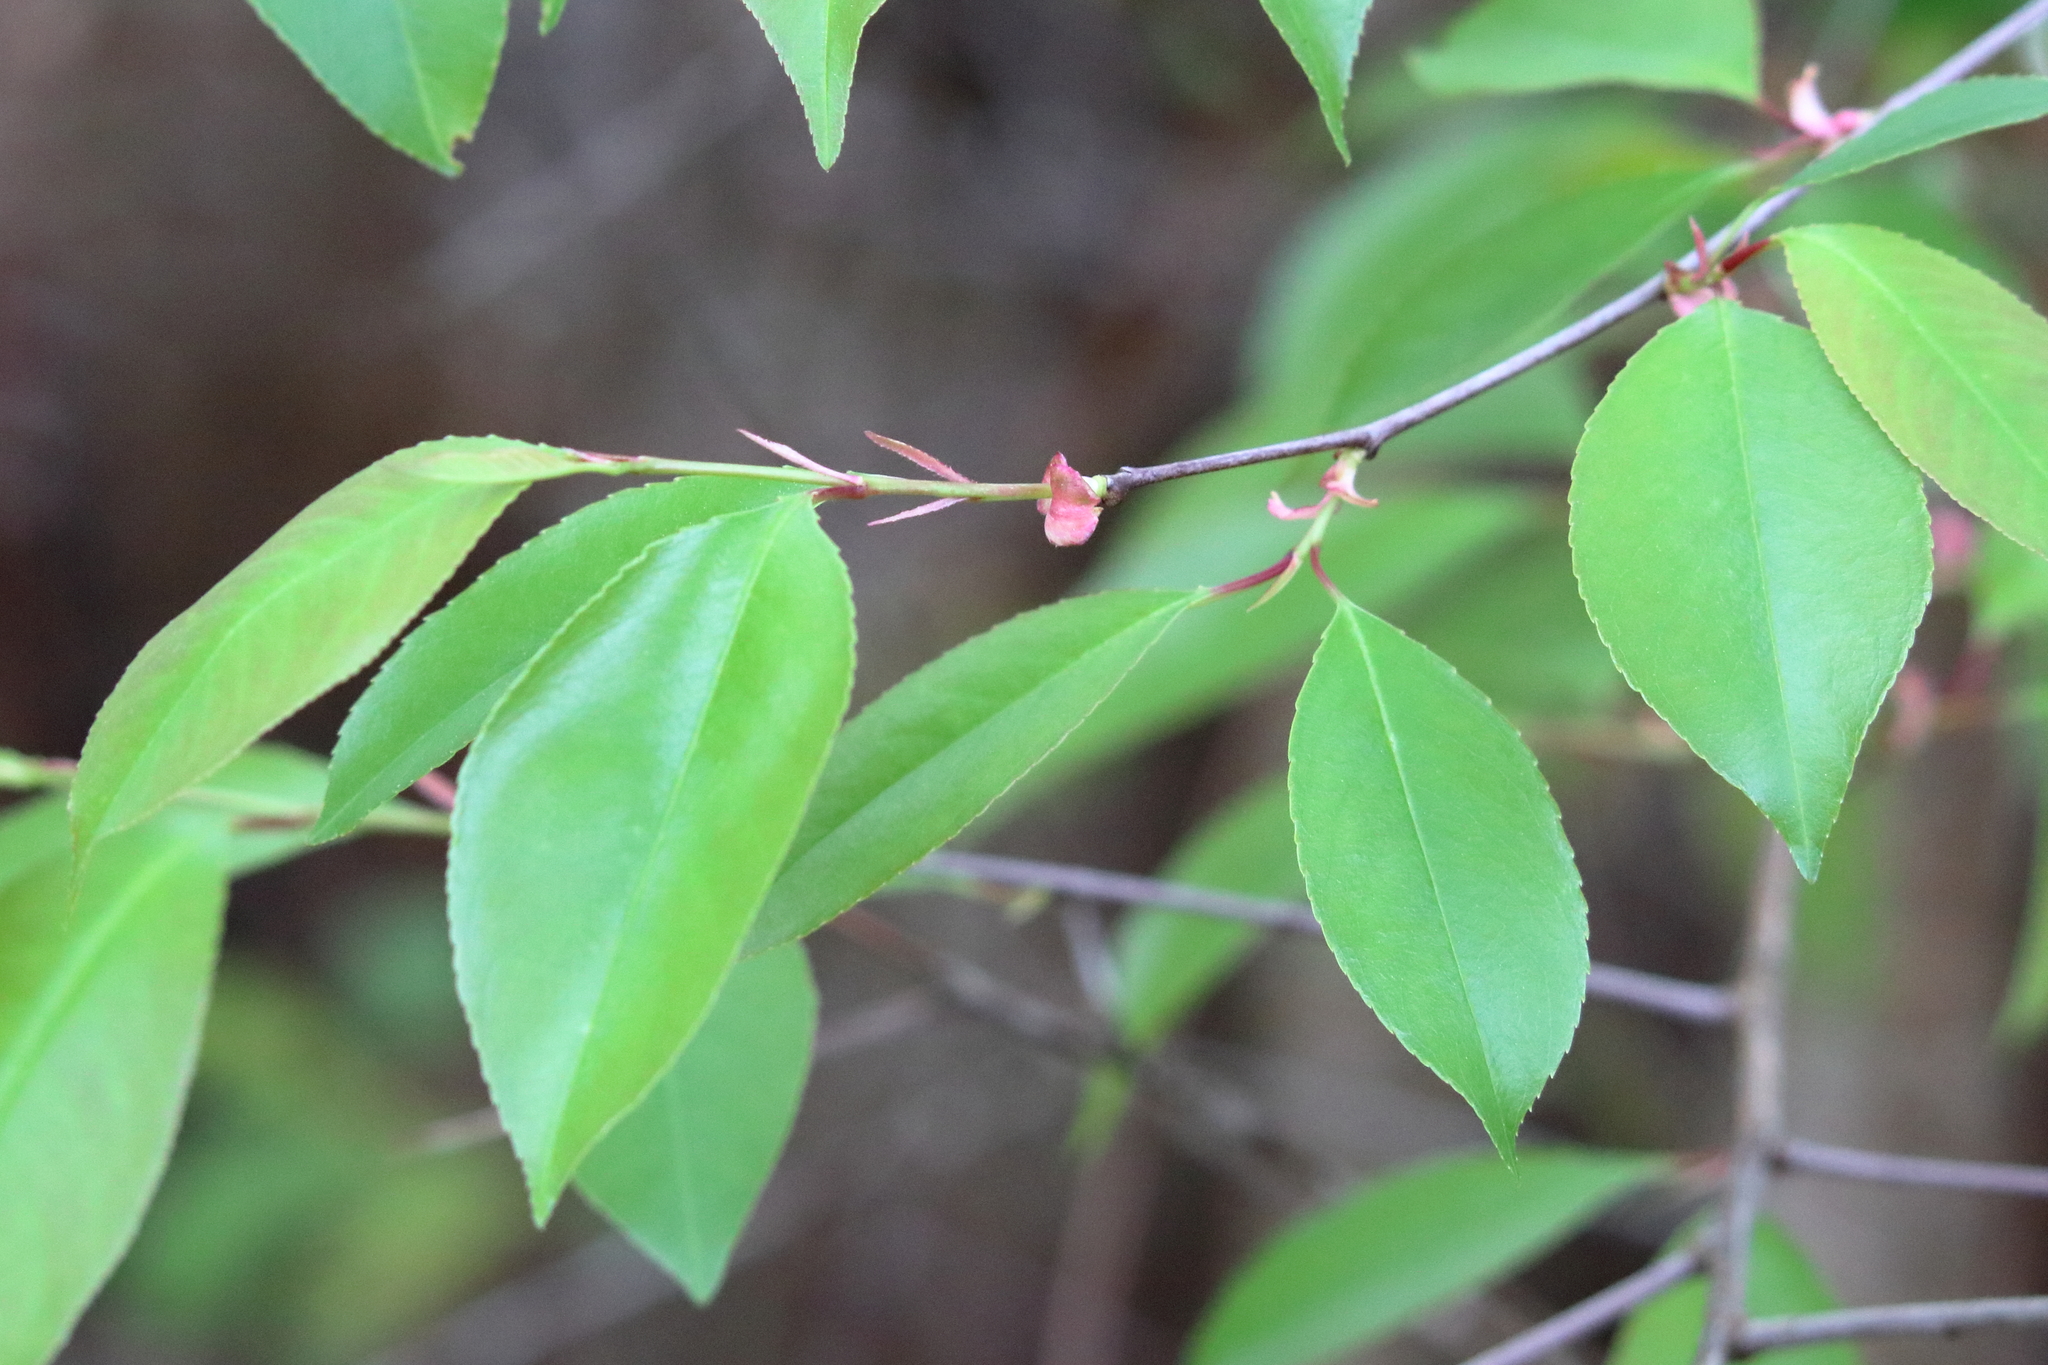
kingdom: Plantae
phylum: Tracheophyta
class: Magnoliopsida
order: Rosales
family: Rosaceae
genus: Prunus
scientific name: Prunus serotina
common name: Black cherry
